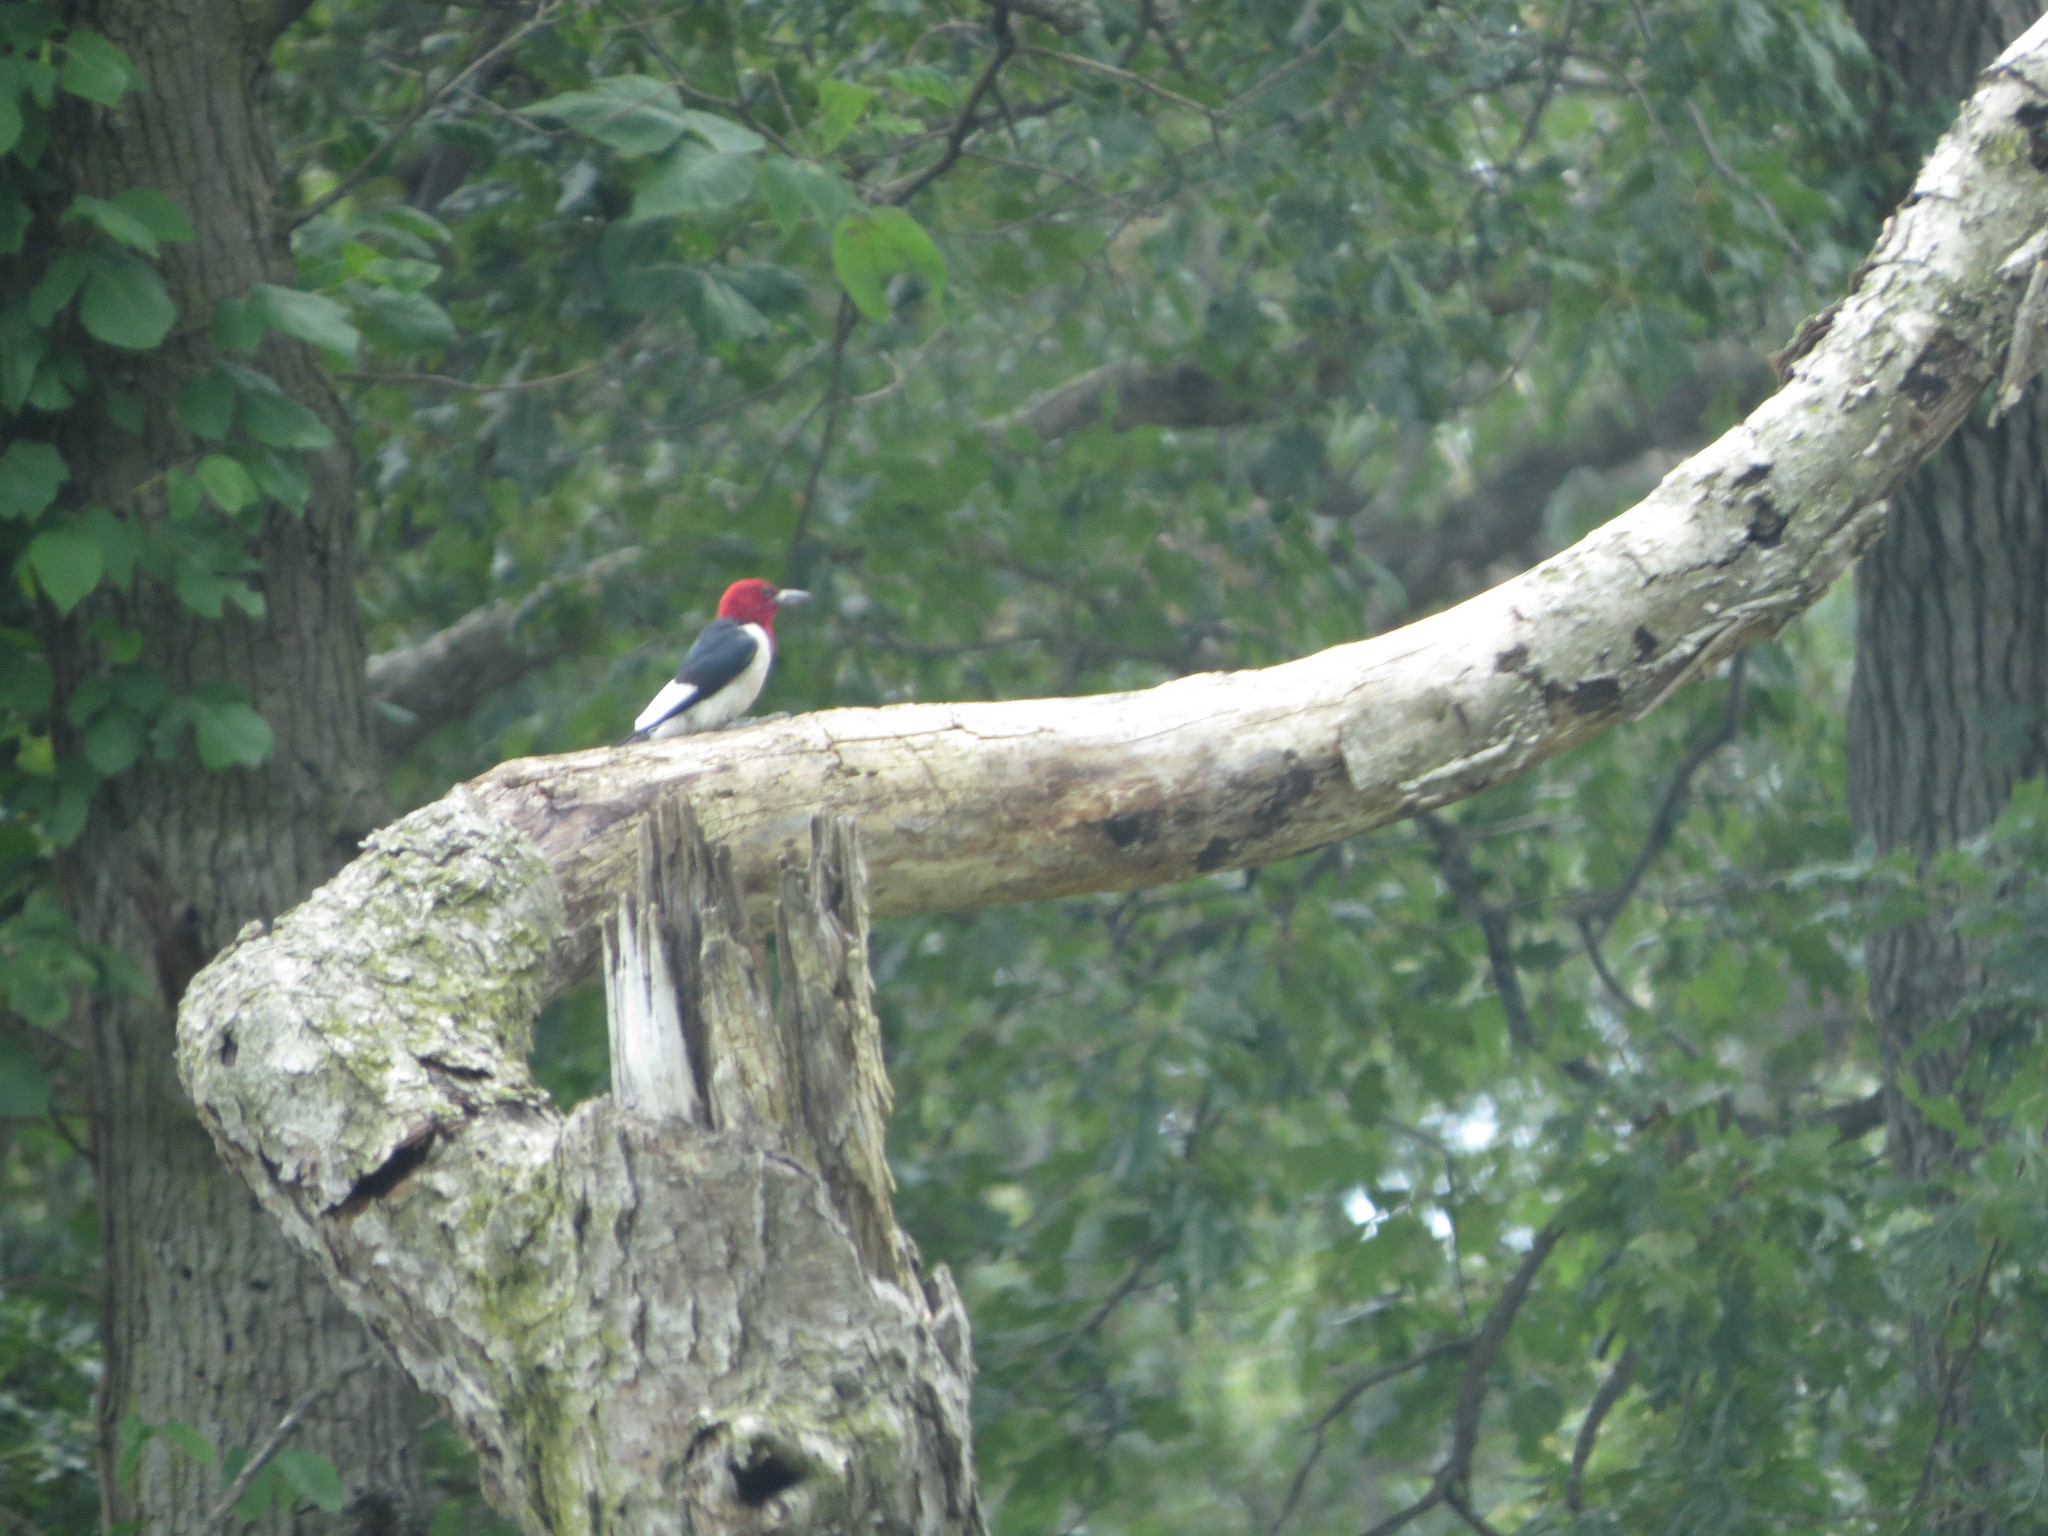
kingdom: Animalia
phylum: Chordata
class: Aves
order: Piciformes
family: Picidae
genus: Melanerpes
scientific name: Melanerpes erythrocephalus
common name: Red-headed woodpecker
